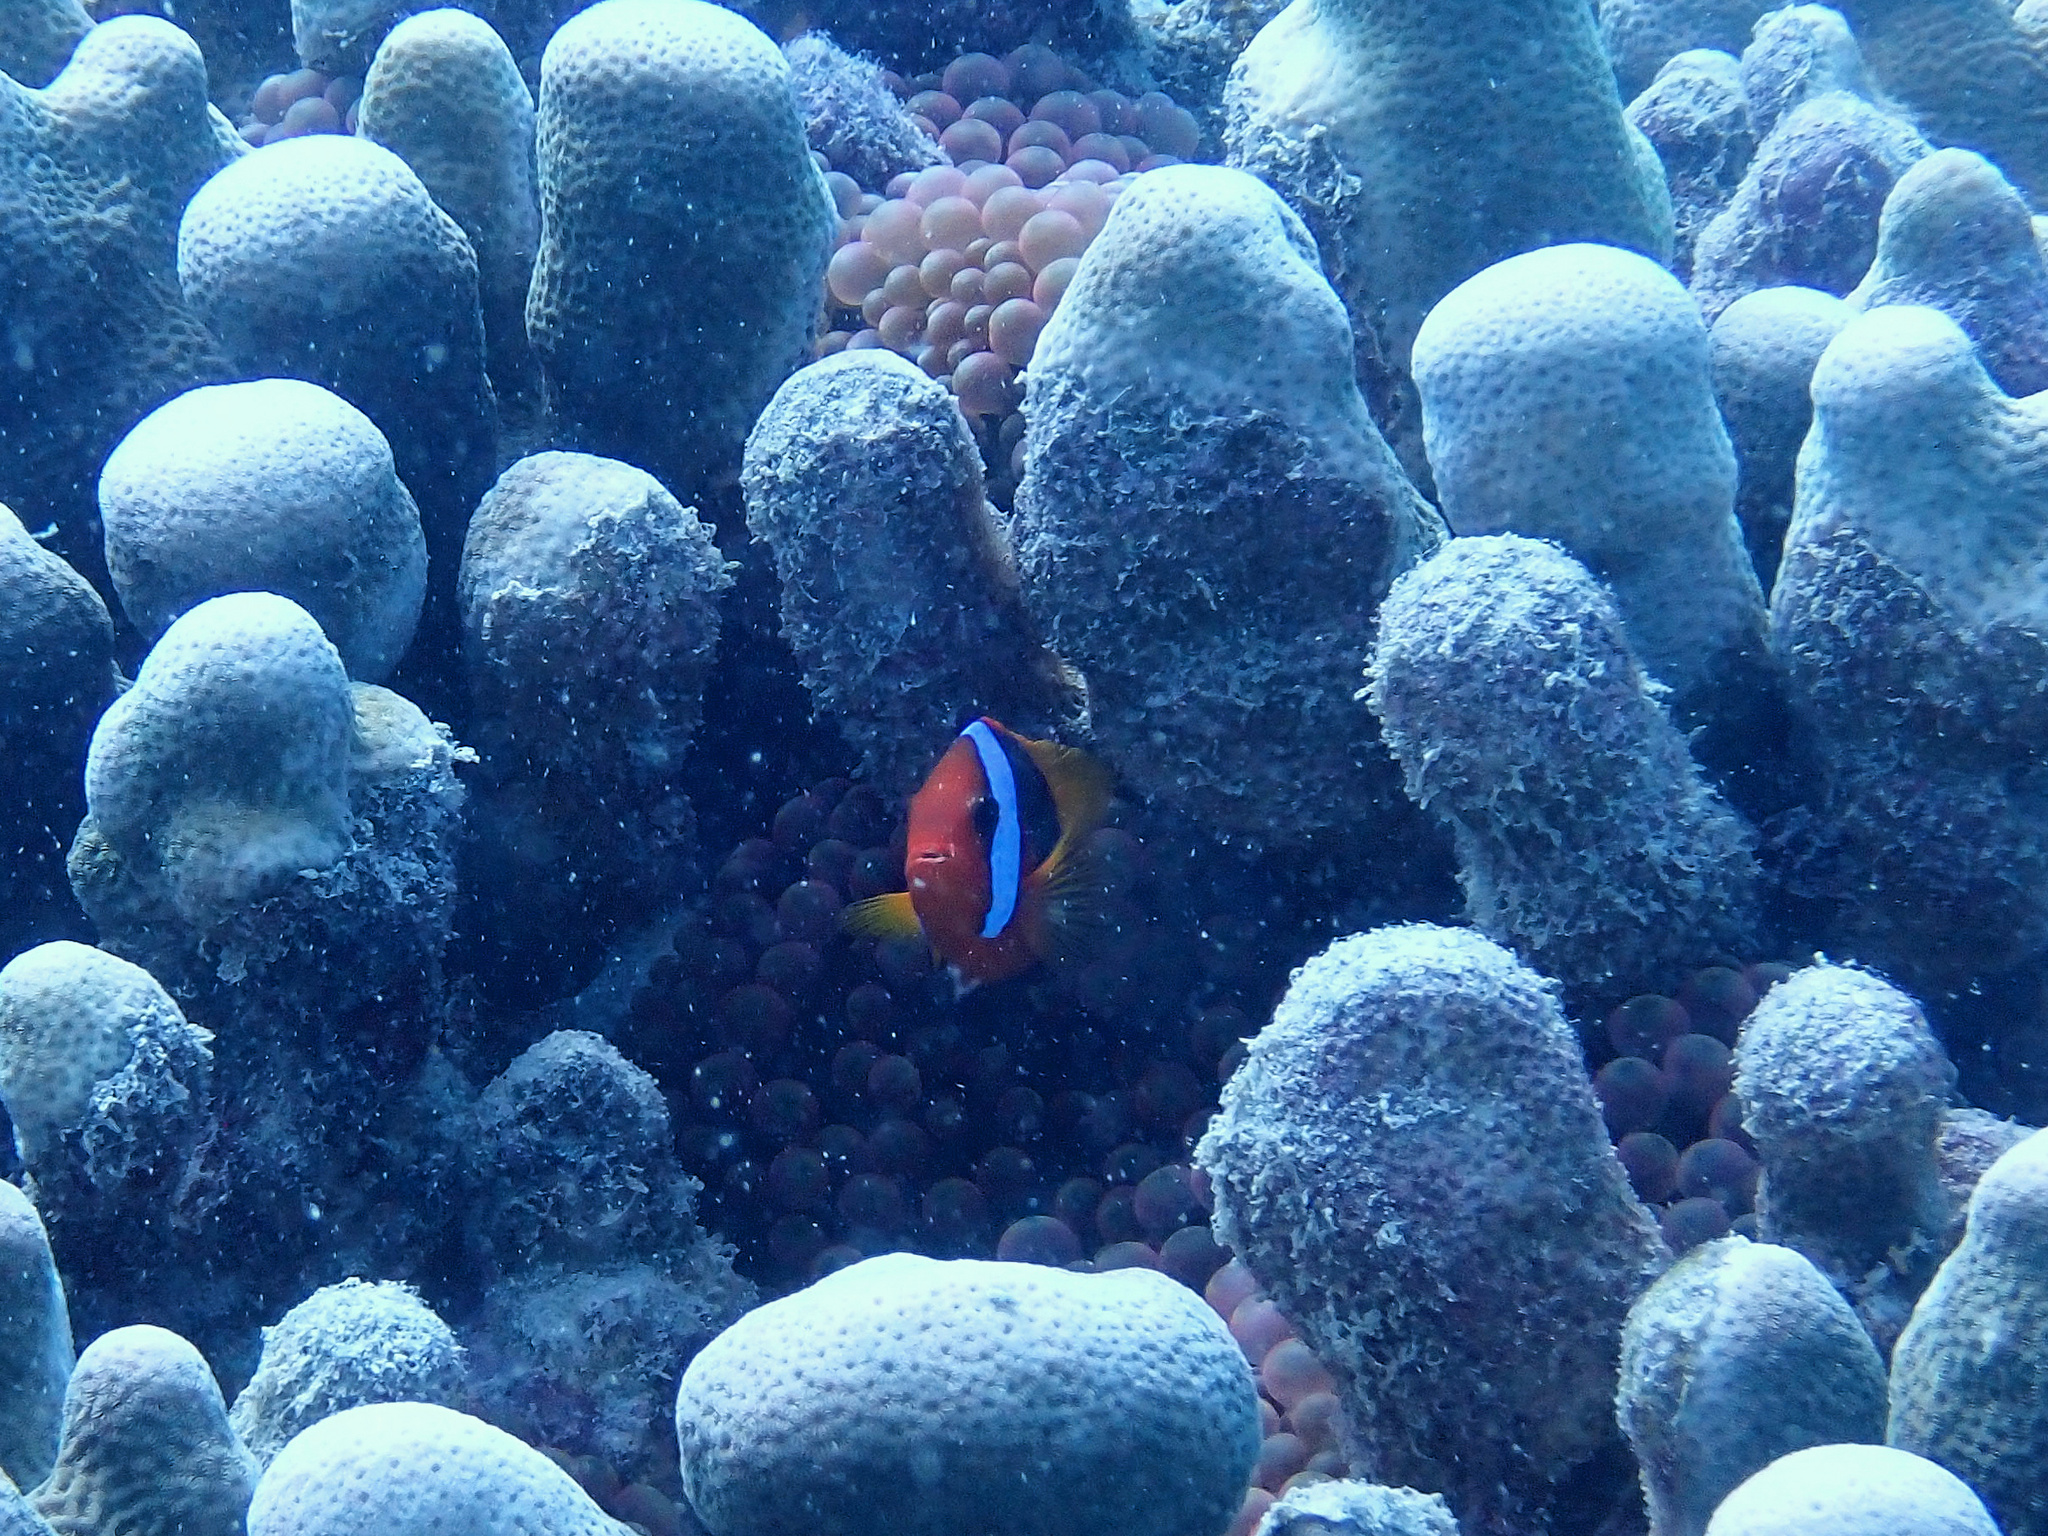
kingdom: Animalia
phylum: Chordata
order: Perciformes
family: Pomacentridae
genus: Amphiprion
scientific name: Amphiprion melanopus
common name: Black anemonefish
